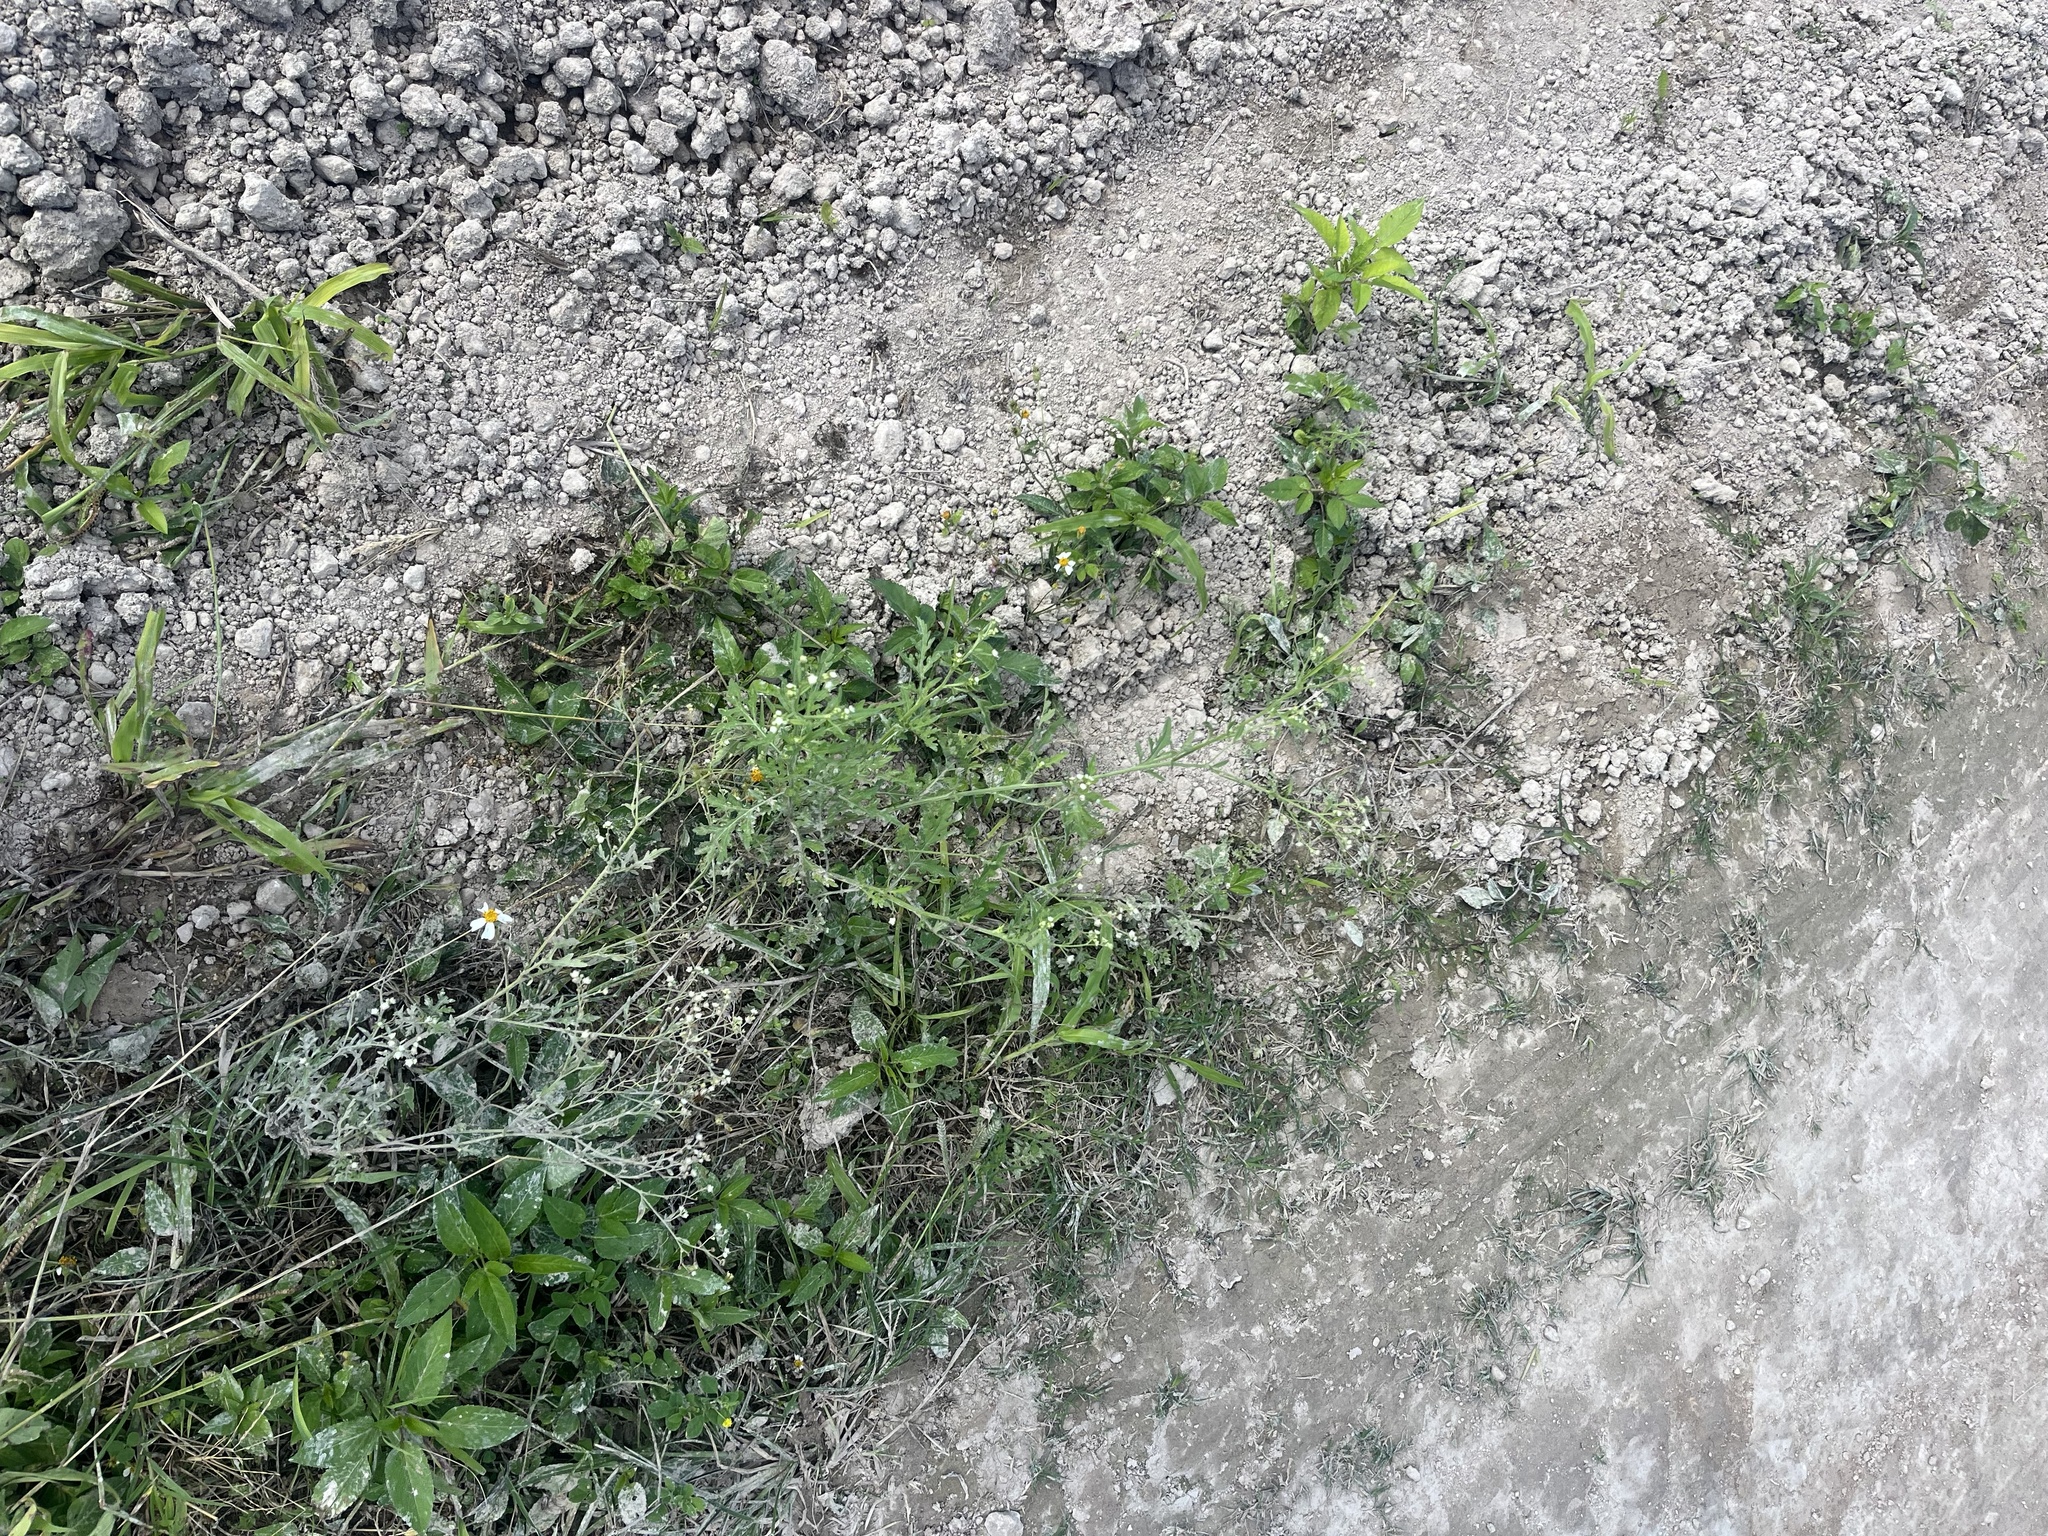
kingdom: Plantae
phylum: Tracheophyta
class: Magnoliopsida
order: Asterales
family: Asteraceae
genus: Parthenium
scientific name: Parthenium hysterophorus
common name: Santa maria feverfew
